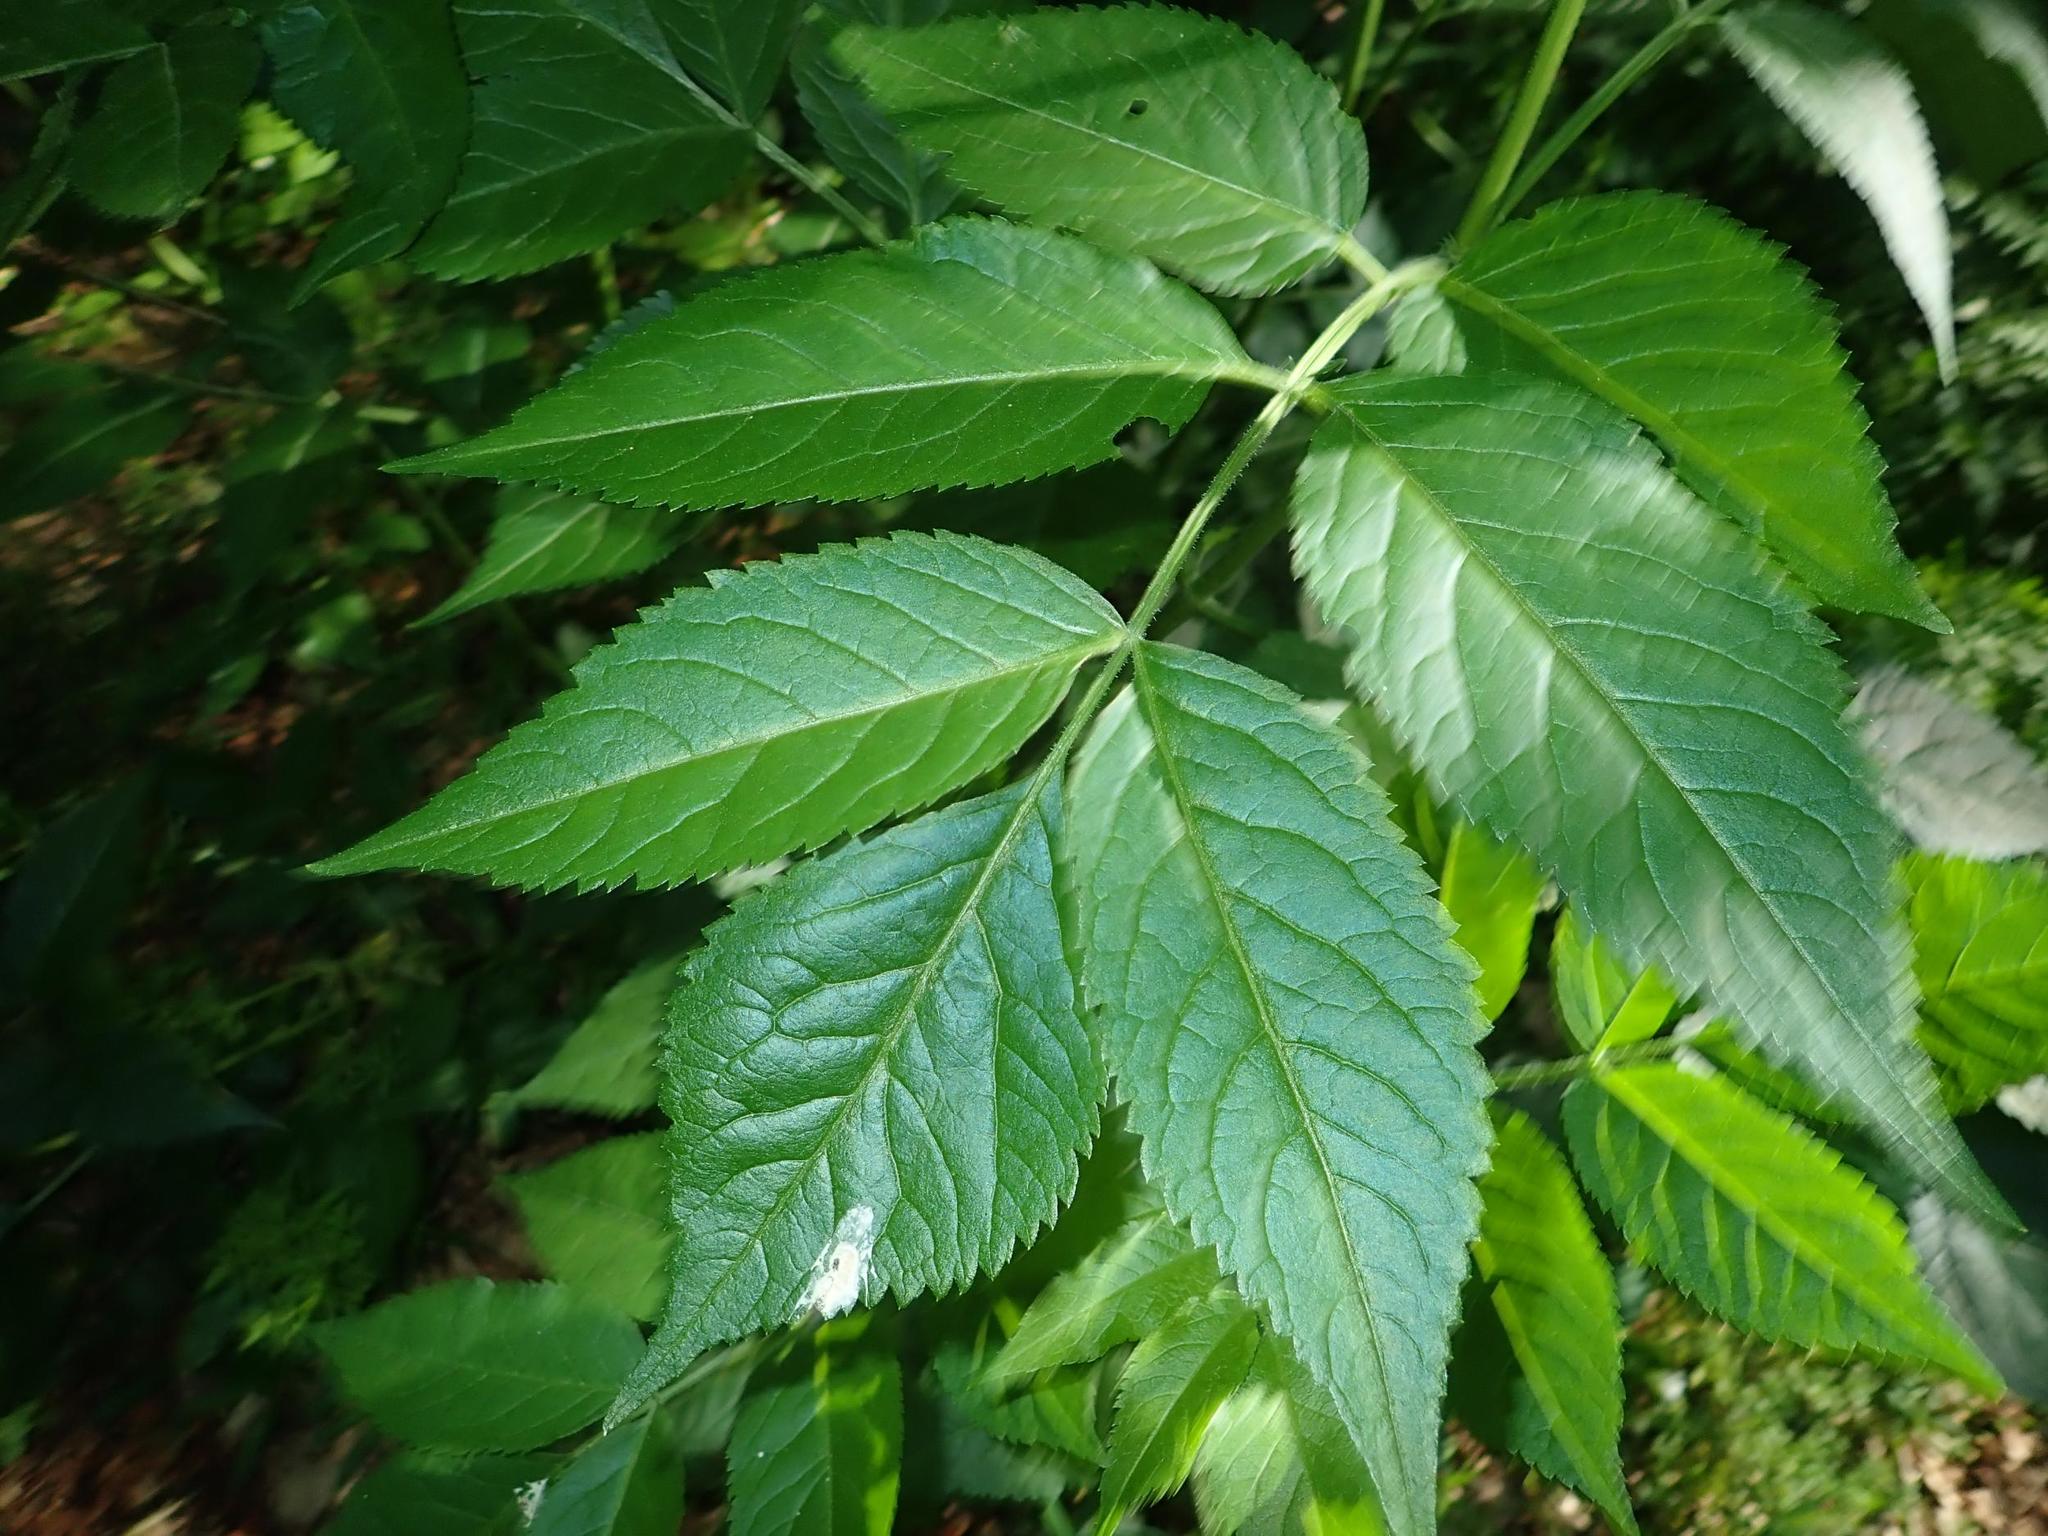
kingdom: Plantae
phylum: Tracheophyta
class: Magnoliopsida
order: Dipsacales
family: Viburnaceae
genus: Sambucus
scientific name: Sambucus nigra
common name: Elder
